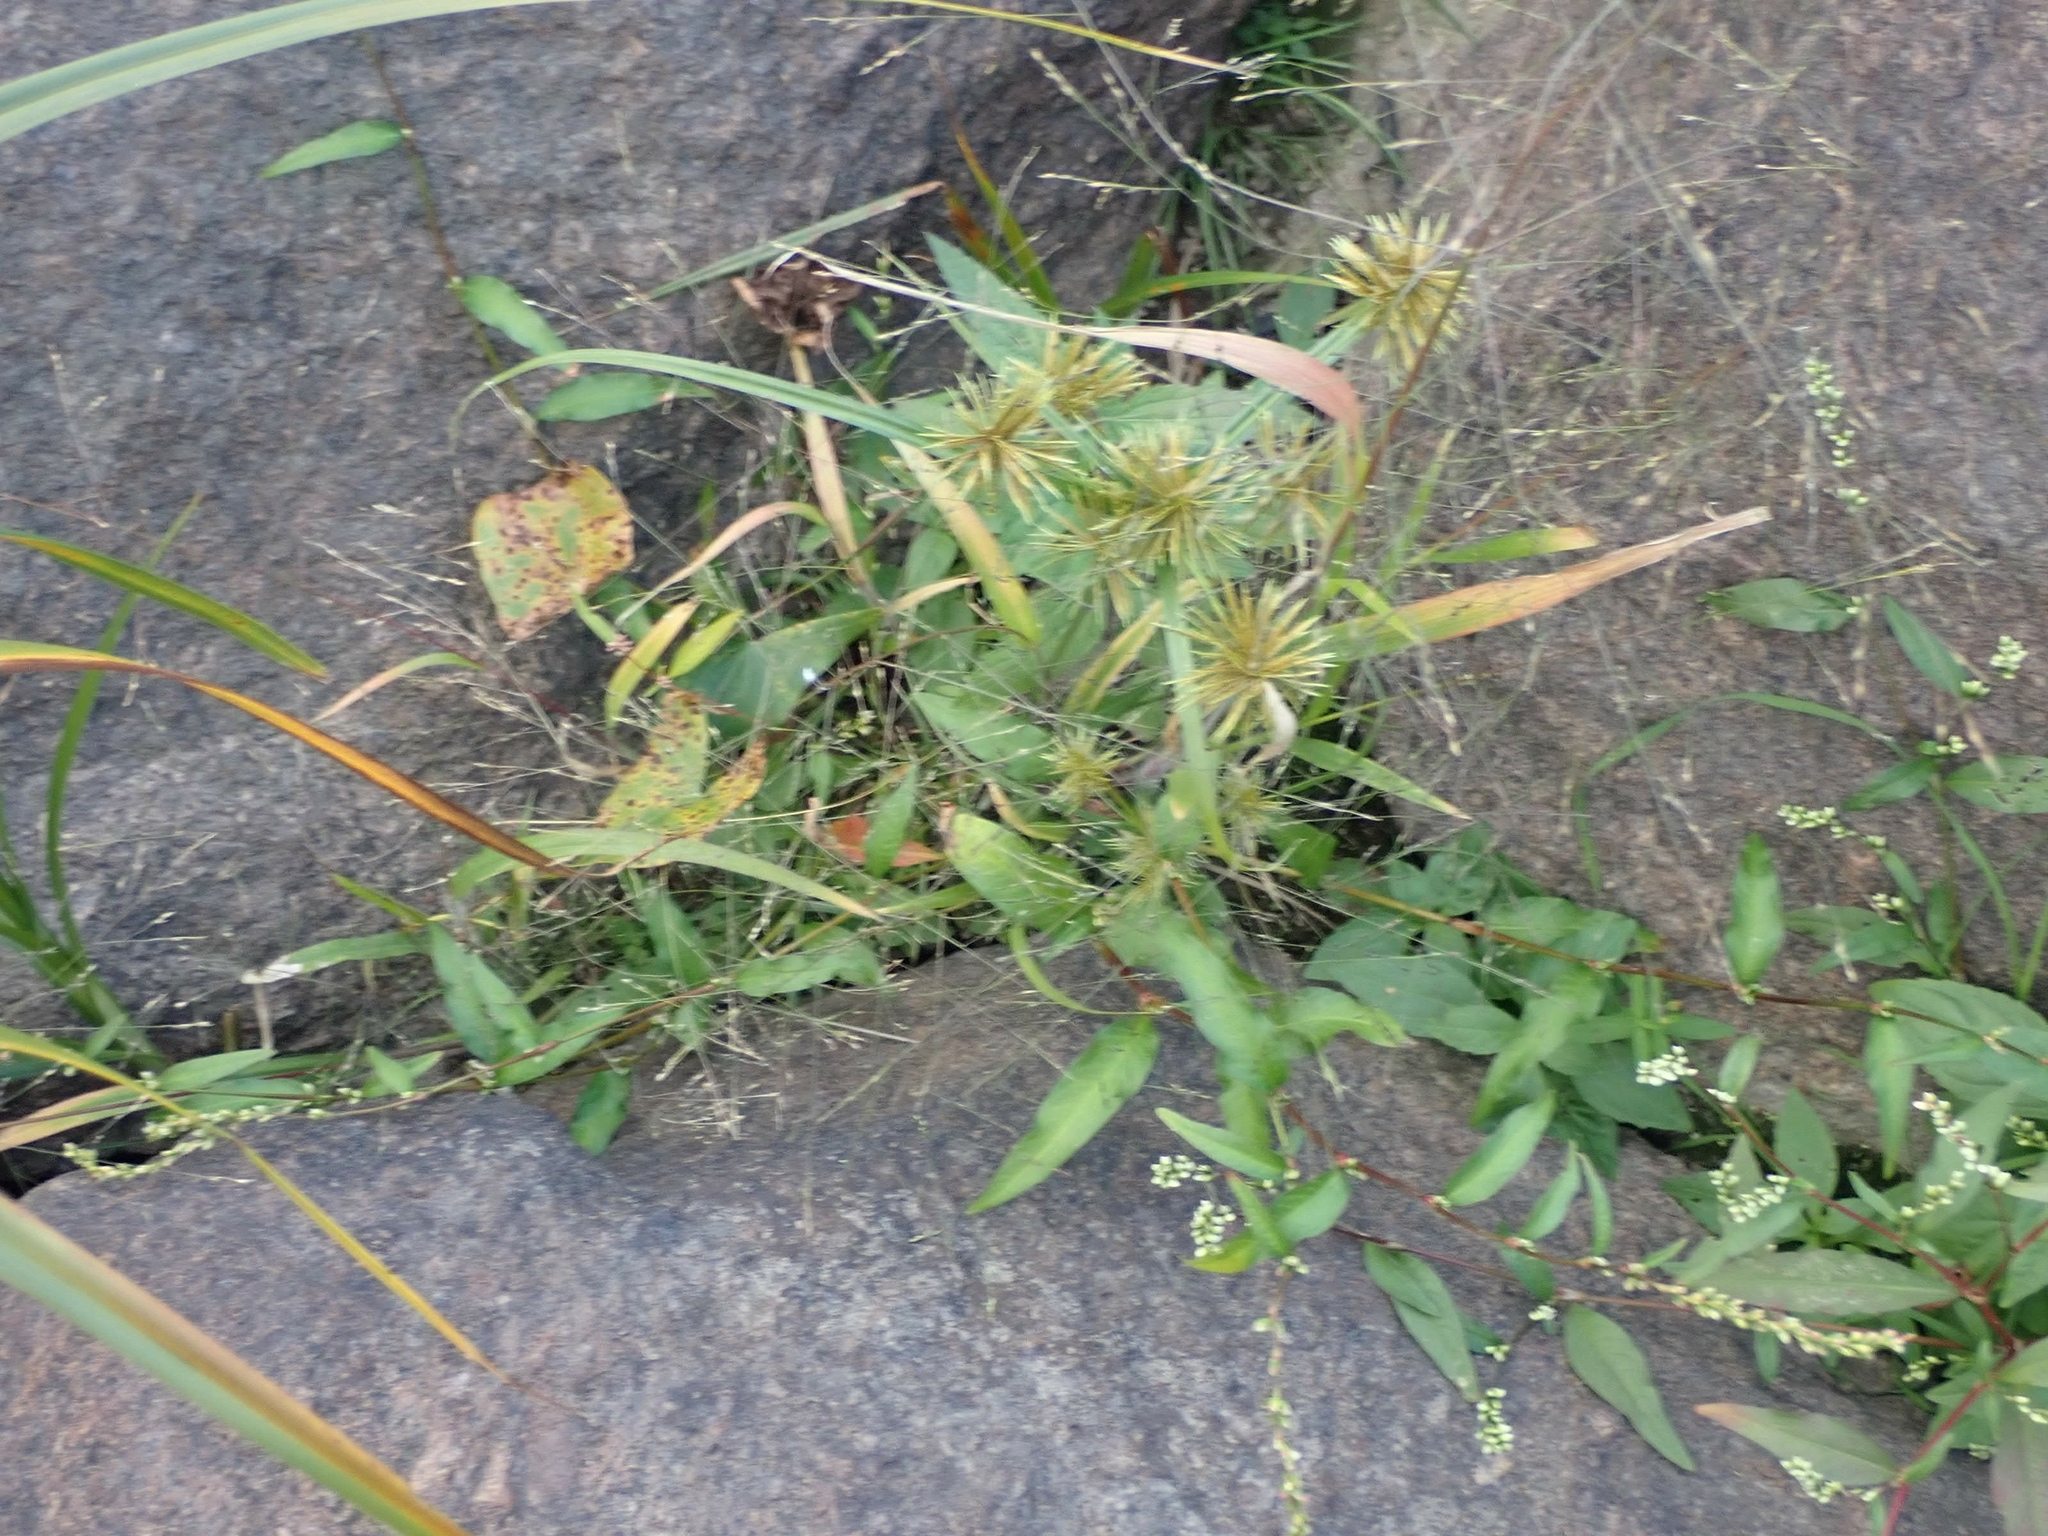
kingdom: Plantae
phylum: Tracheophyta
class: Liliopsida
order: Poales
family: Cyperaceae
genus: Cyperus
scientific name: Cyperus strigosus
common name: False nutsedge
